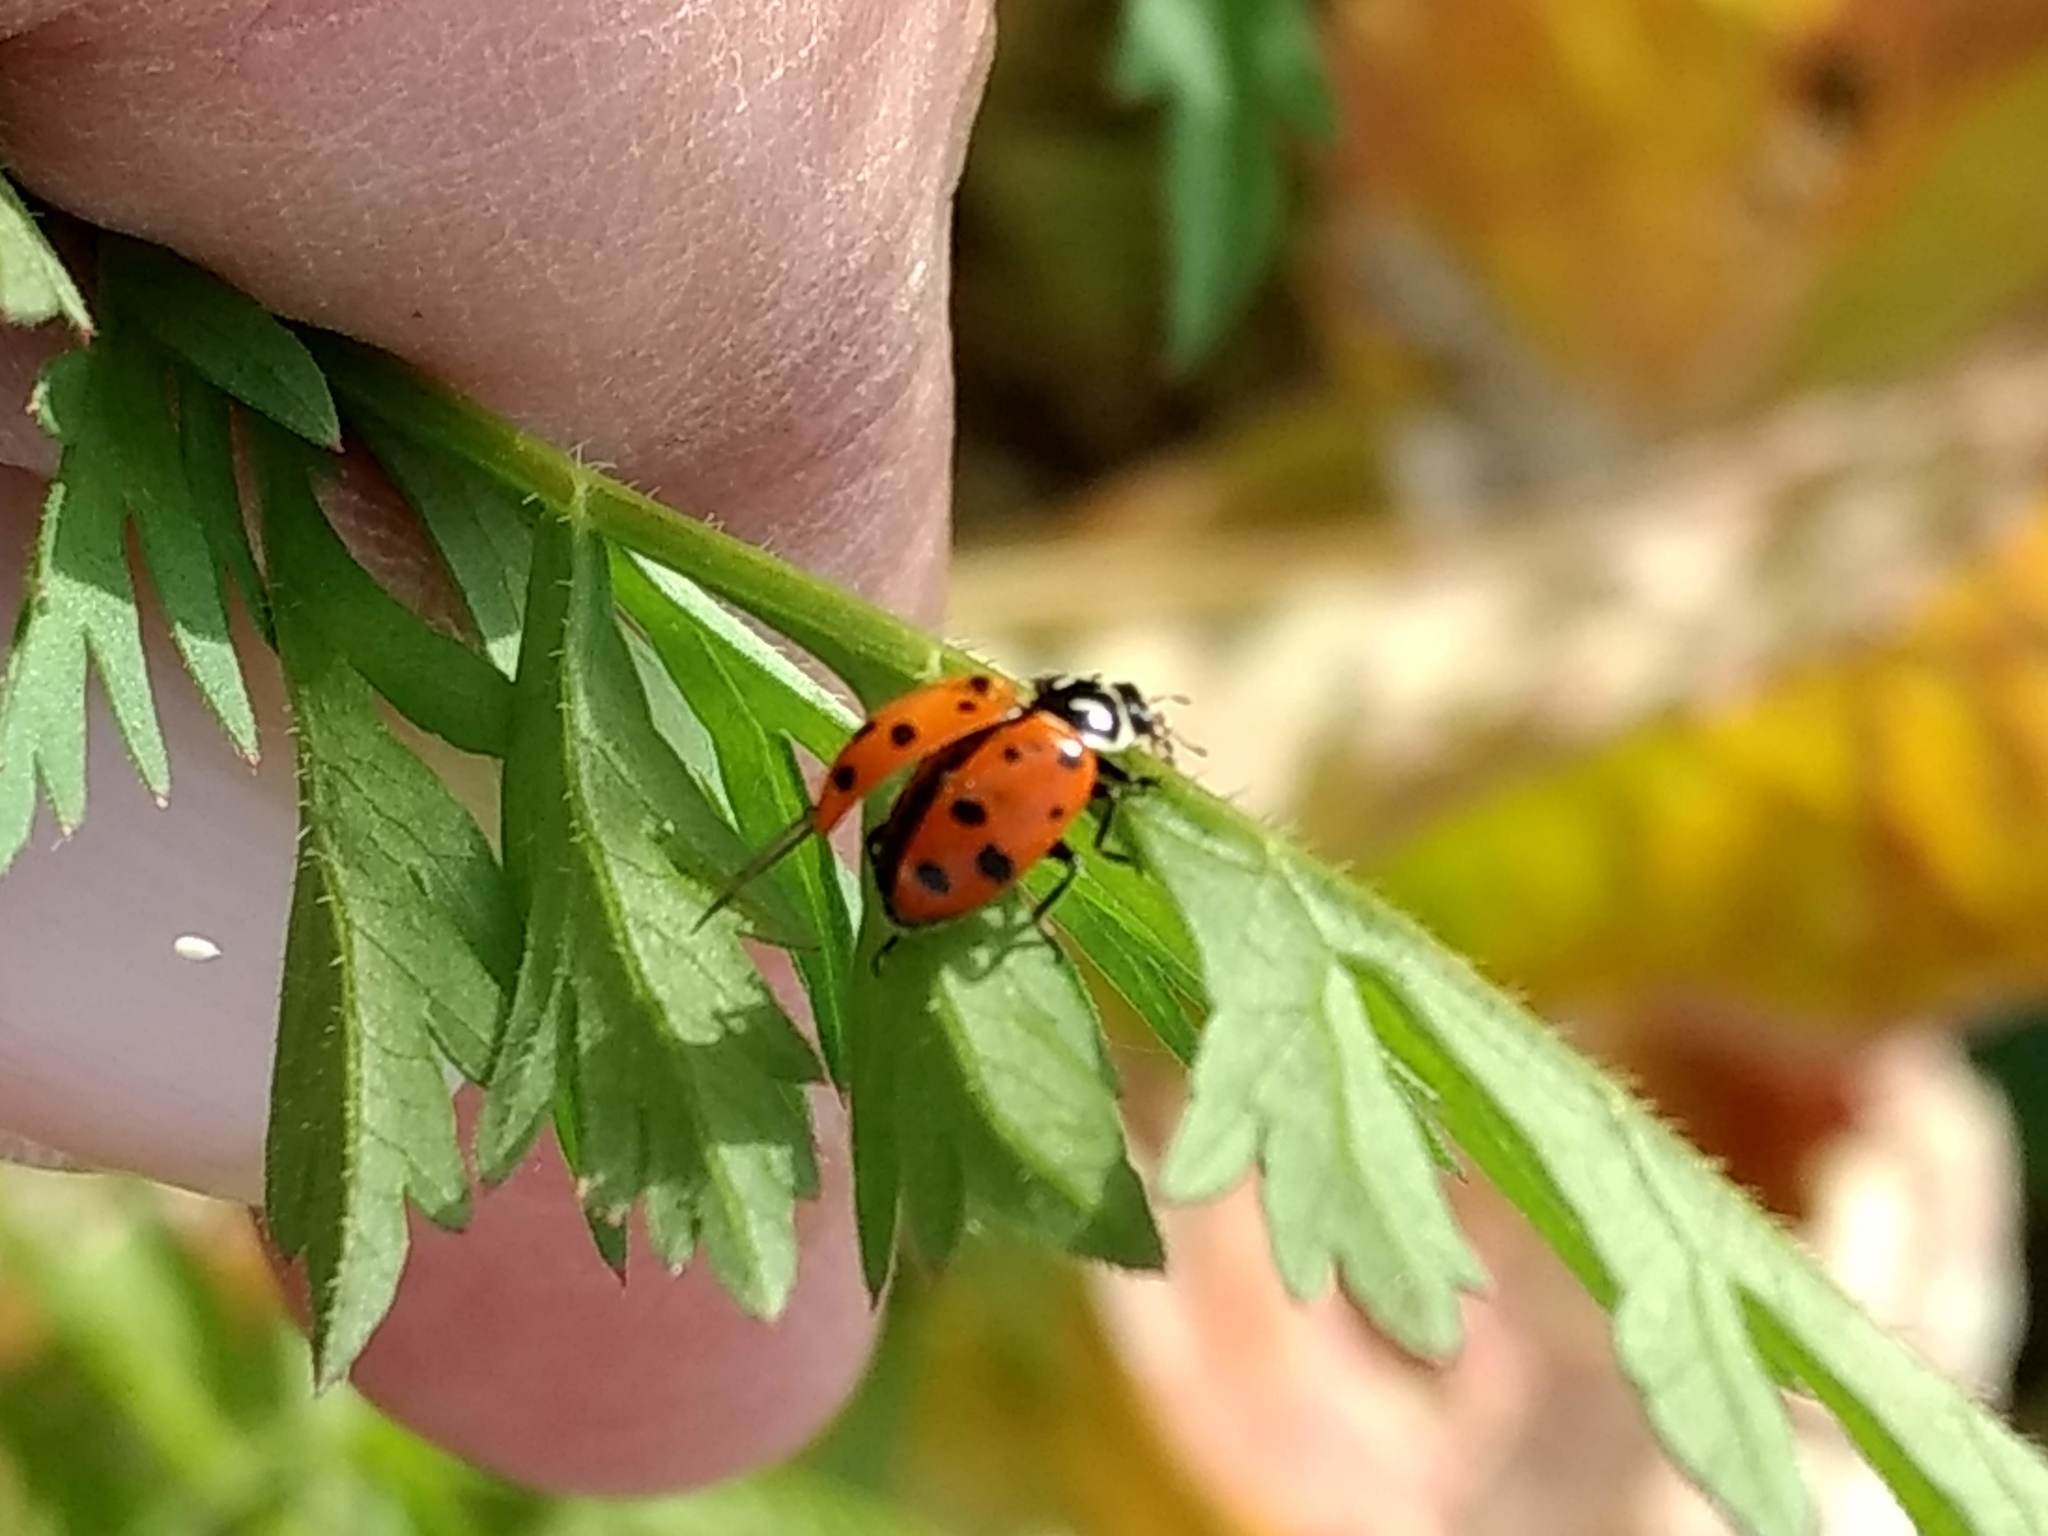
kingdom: Animalia
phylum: Arthropoda
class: Insecta
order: Coleoptera
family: Coccinellidae
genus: Hippodamia
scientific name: Hippodamia convergens
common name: Convergent lady beetle
